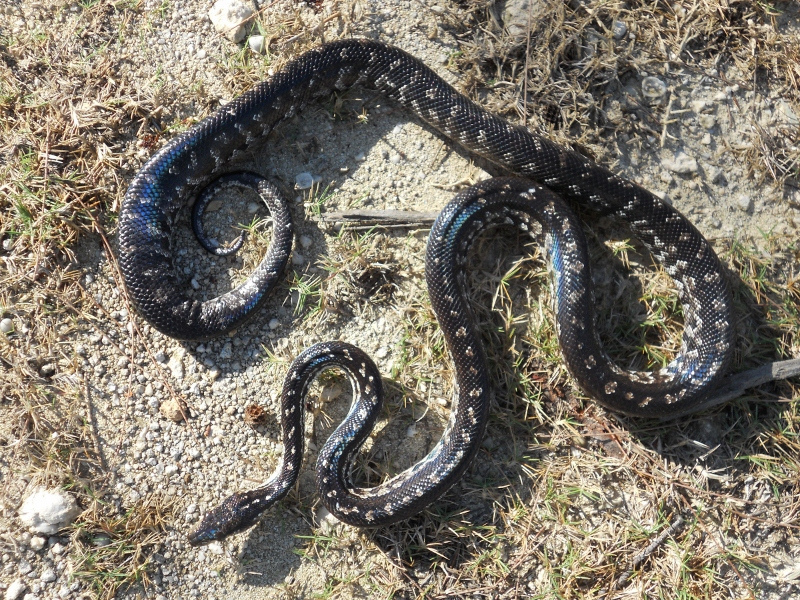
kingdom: Animalia
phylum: Chordata
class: Squamata
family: Boidae
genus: Chilabothrus
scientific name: Chilabothrus strigilatus
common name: Bahamian boa
